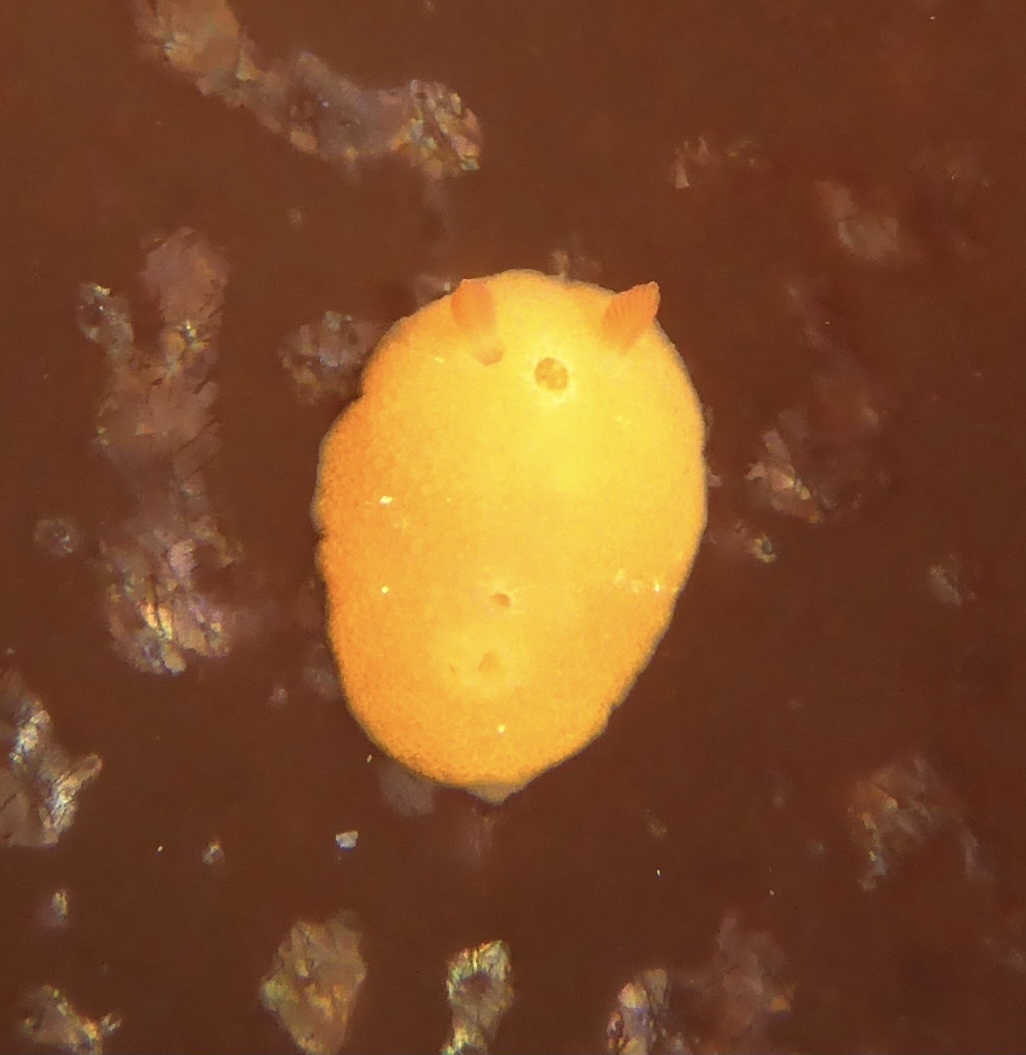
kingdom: Animalia
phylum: Mollusca
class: Gastropoda
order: Nudibranchia
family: Cadlinidae
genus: Aldisa
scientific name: Aldisa sanguinea
